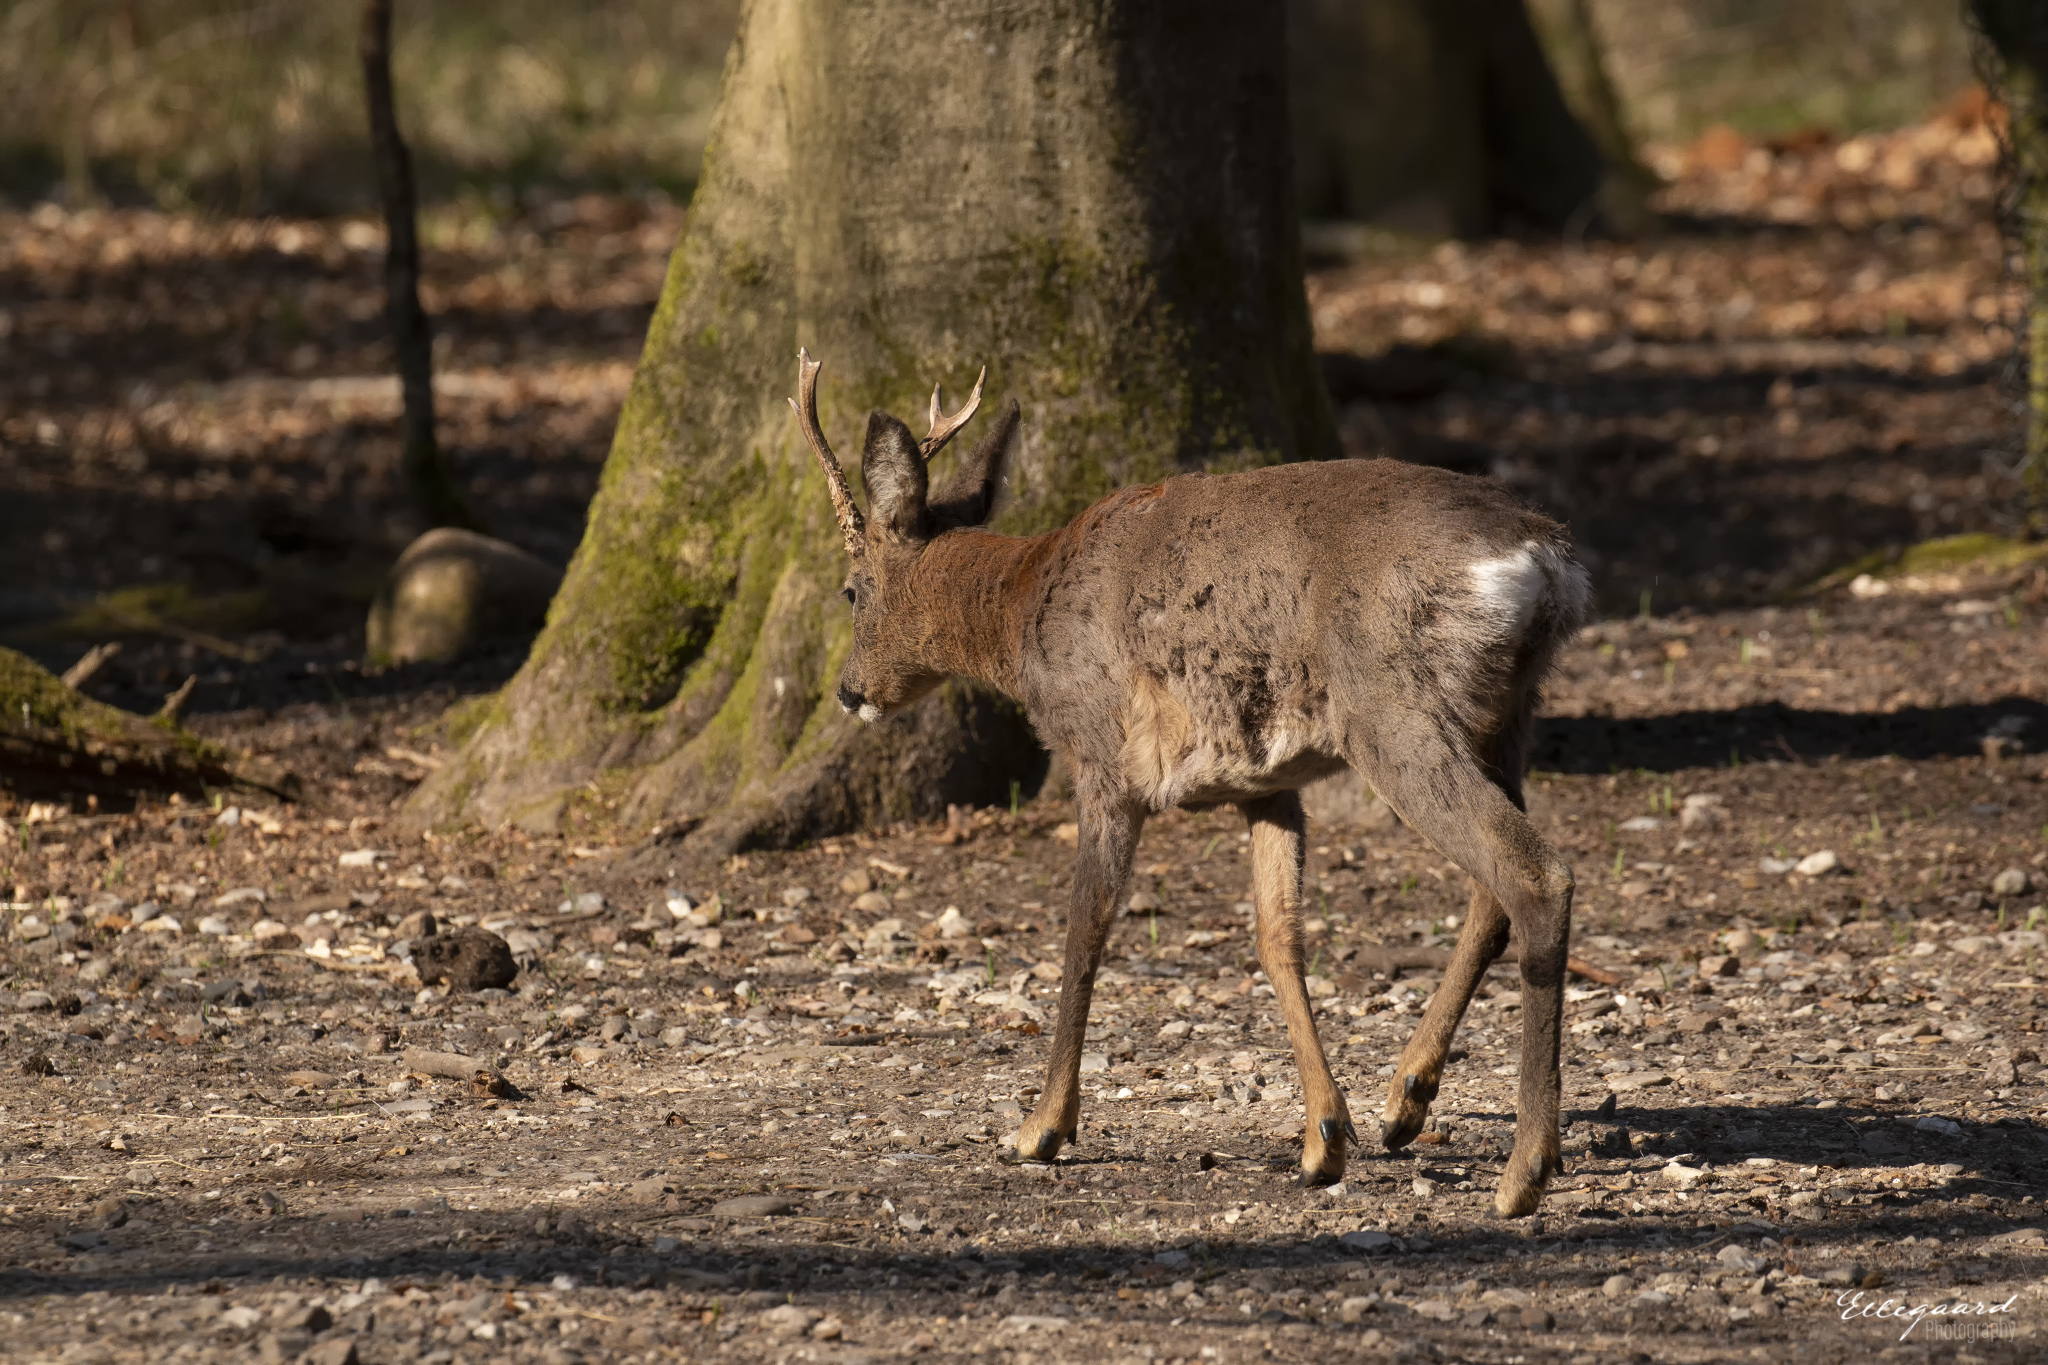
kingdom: Animalia
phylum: Chordata
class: Mammalia
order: Artiodactyla
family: Cervidae
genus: Capreolus
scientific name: Capreolus capreolus
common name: Western roe deer
